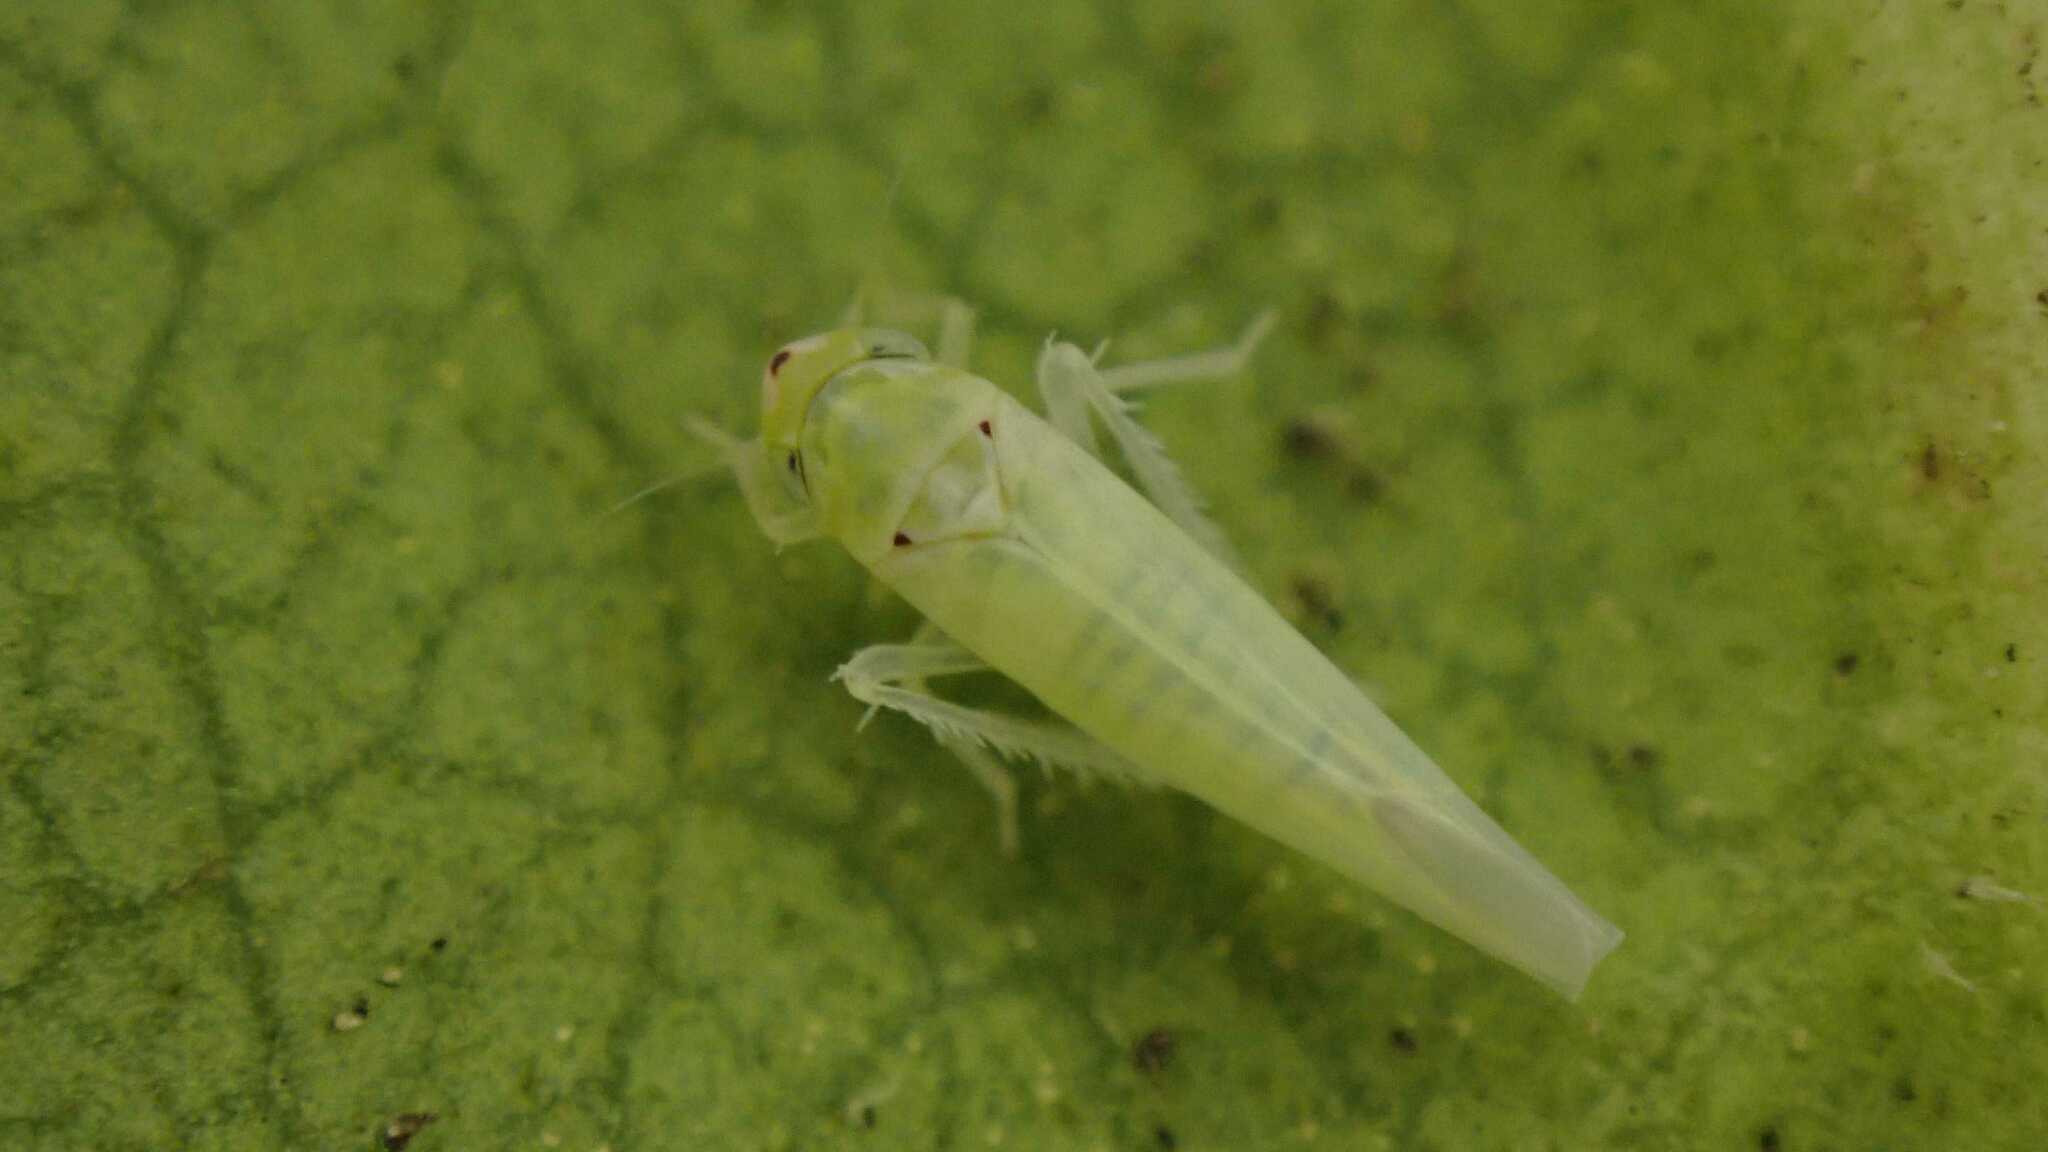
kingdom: Animalia
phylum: Arthropoda
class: Insecta
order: Hemiptera
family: Cicadellidae
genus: Zygina
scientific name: Zygina nivea
